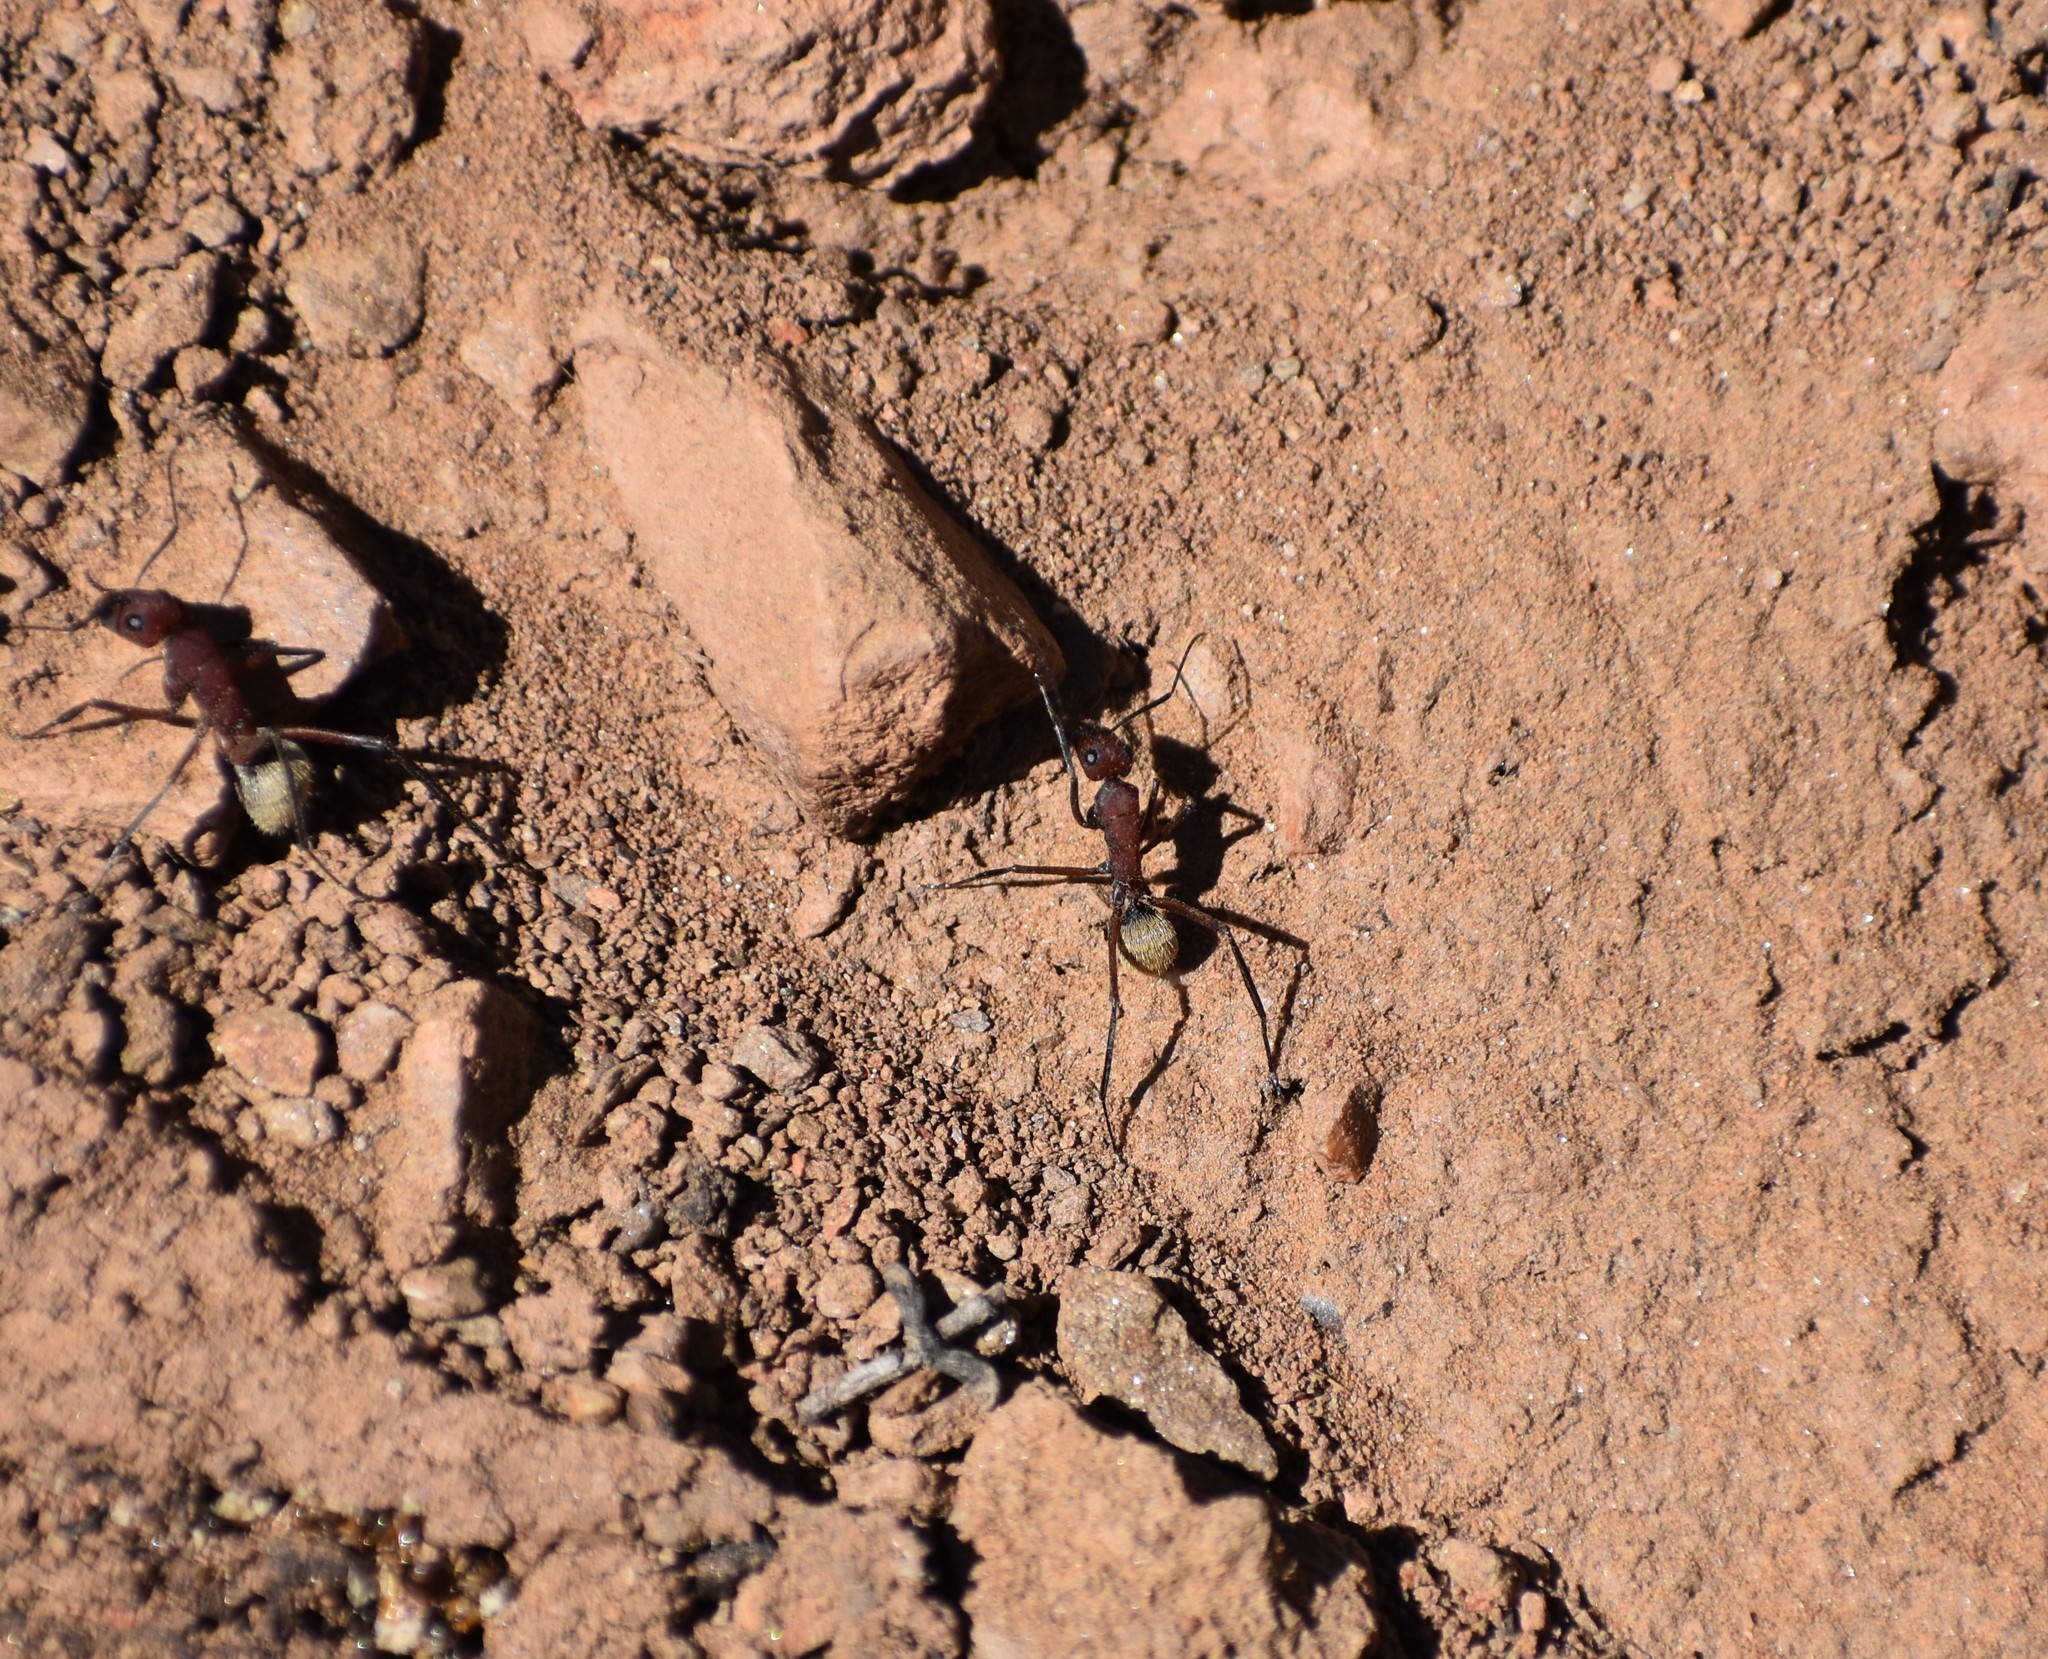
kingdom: Animalia
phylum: Arthropoda
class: Insecta
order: Hymenoptera
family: Formicidae
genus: Camponotus
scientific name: Camponotus storeatus
